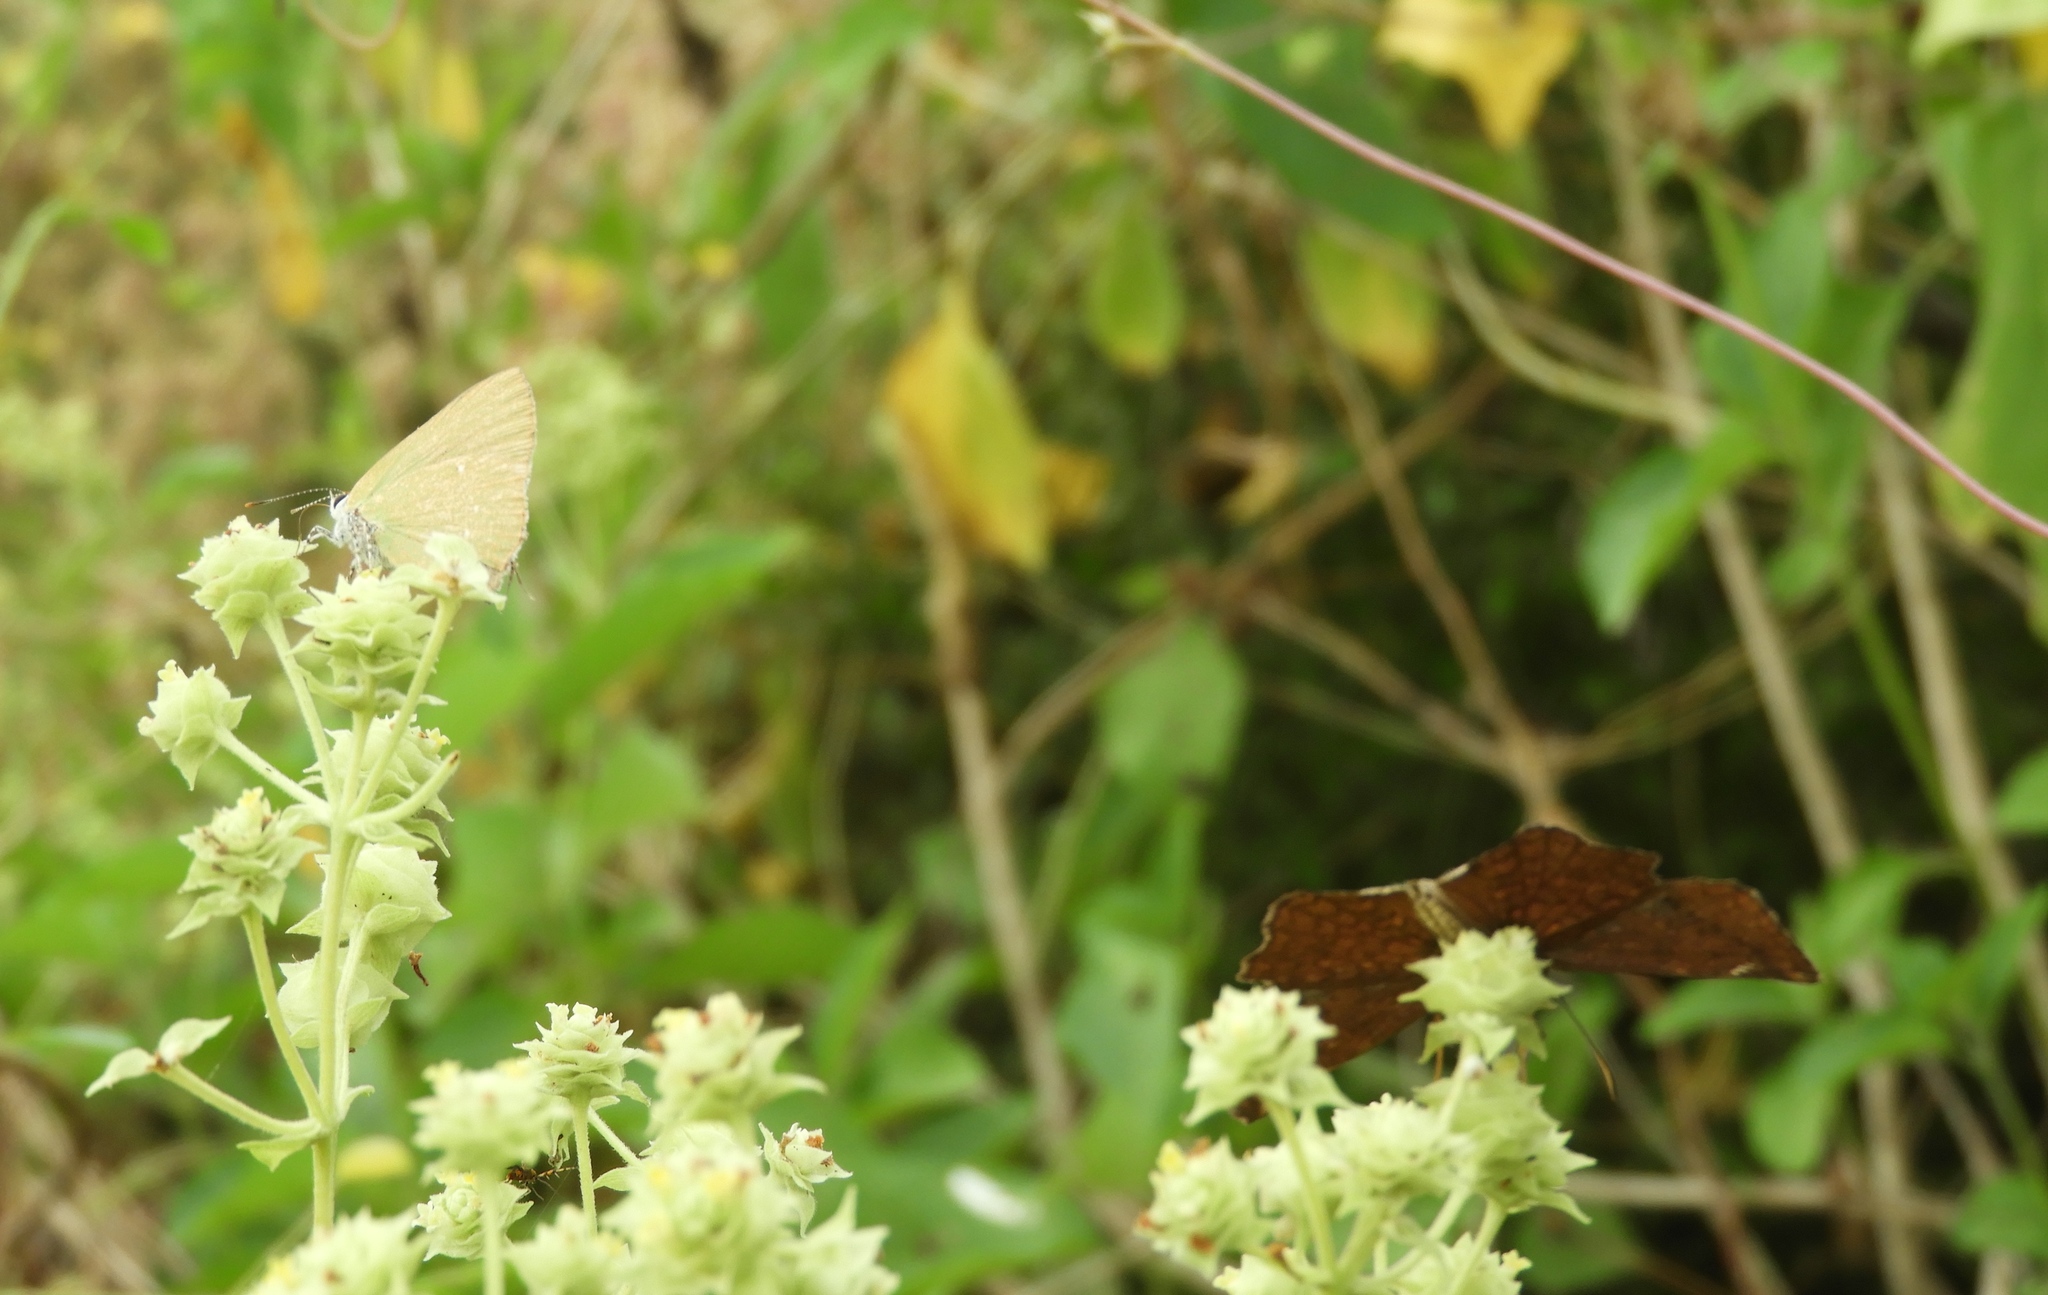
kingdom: Animalia
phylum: Arthropoda
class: Insecta
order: Lepidoptera
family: Hesperiidae
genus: Antigonus
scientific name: Antigonus erosus
